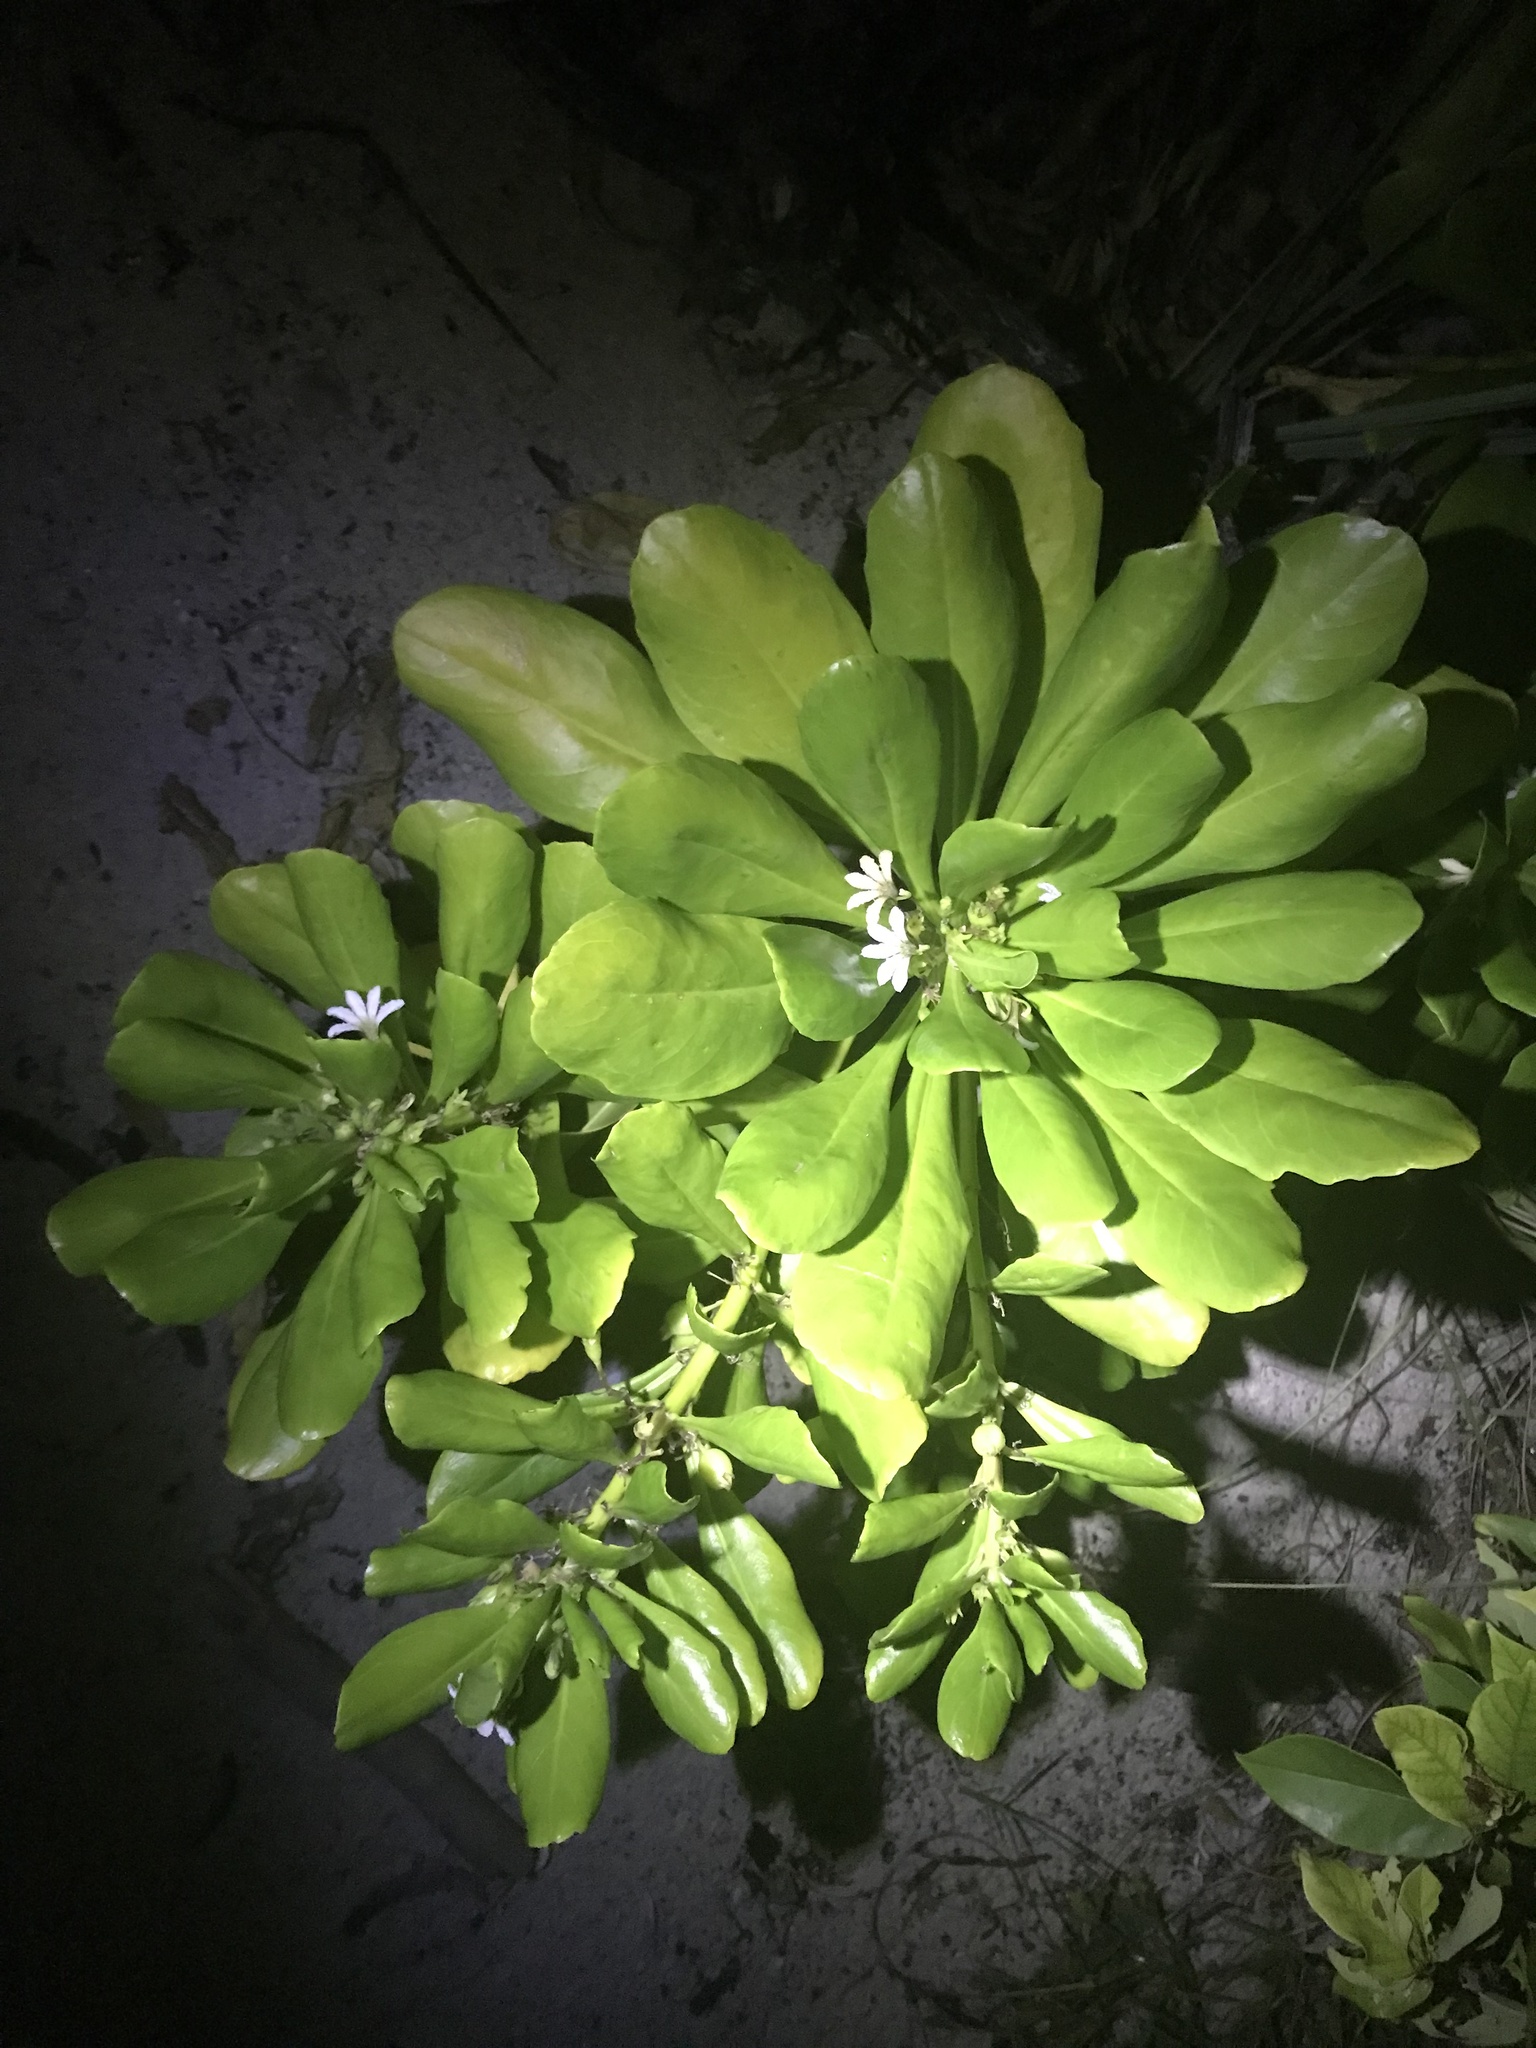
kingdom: Plantae
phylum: Tracheophyta
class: Magnoliopsida
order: Asterales
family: Goodeniaceae
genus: Scaevola
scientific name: Scaevola taccada
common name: Sea lettucetree
